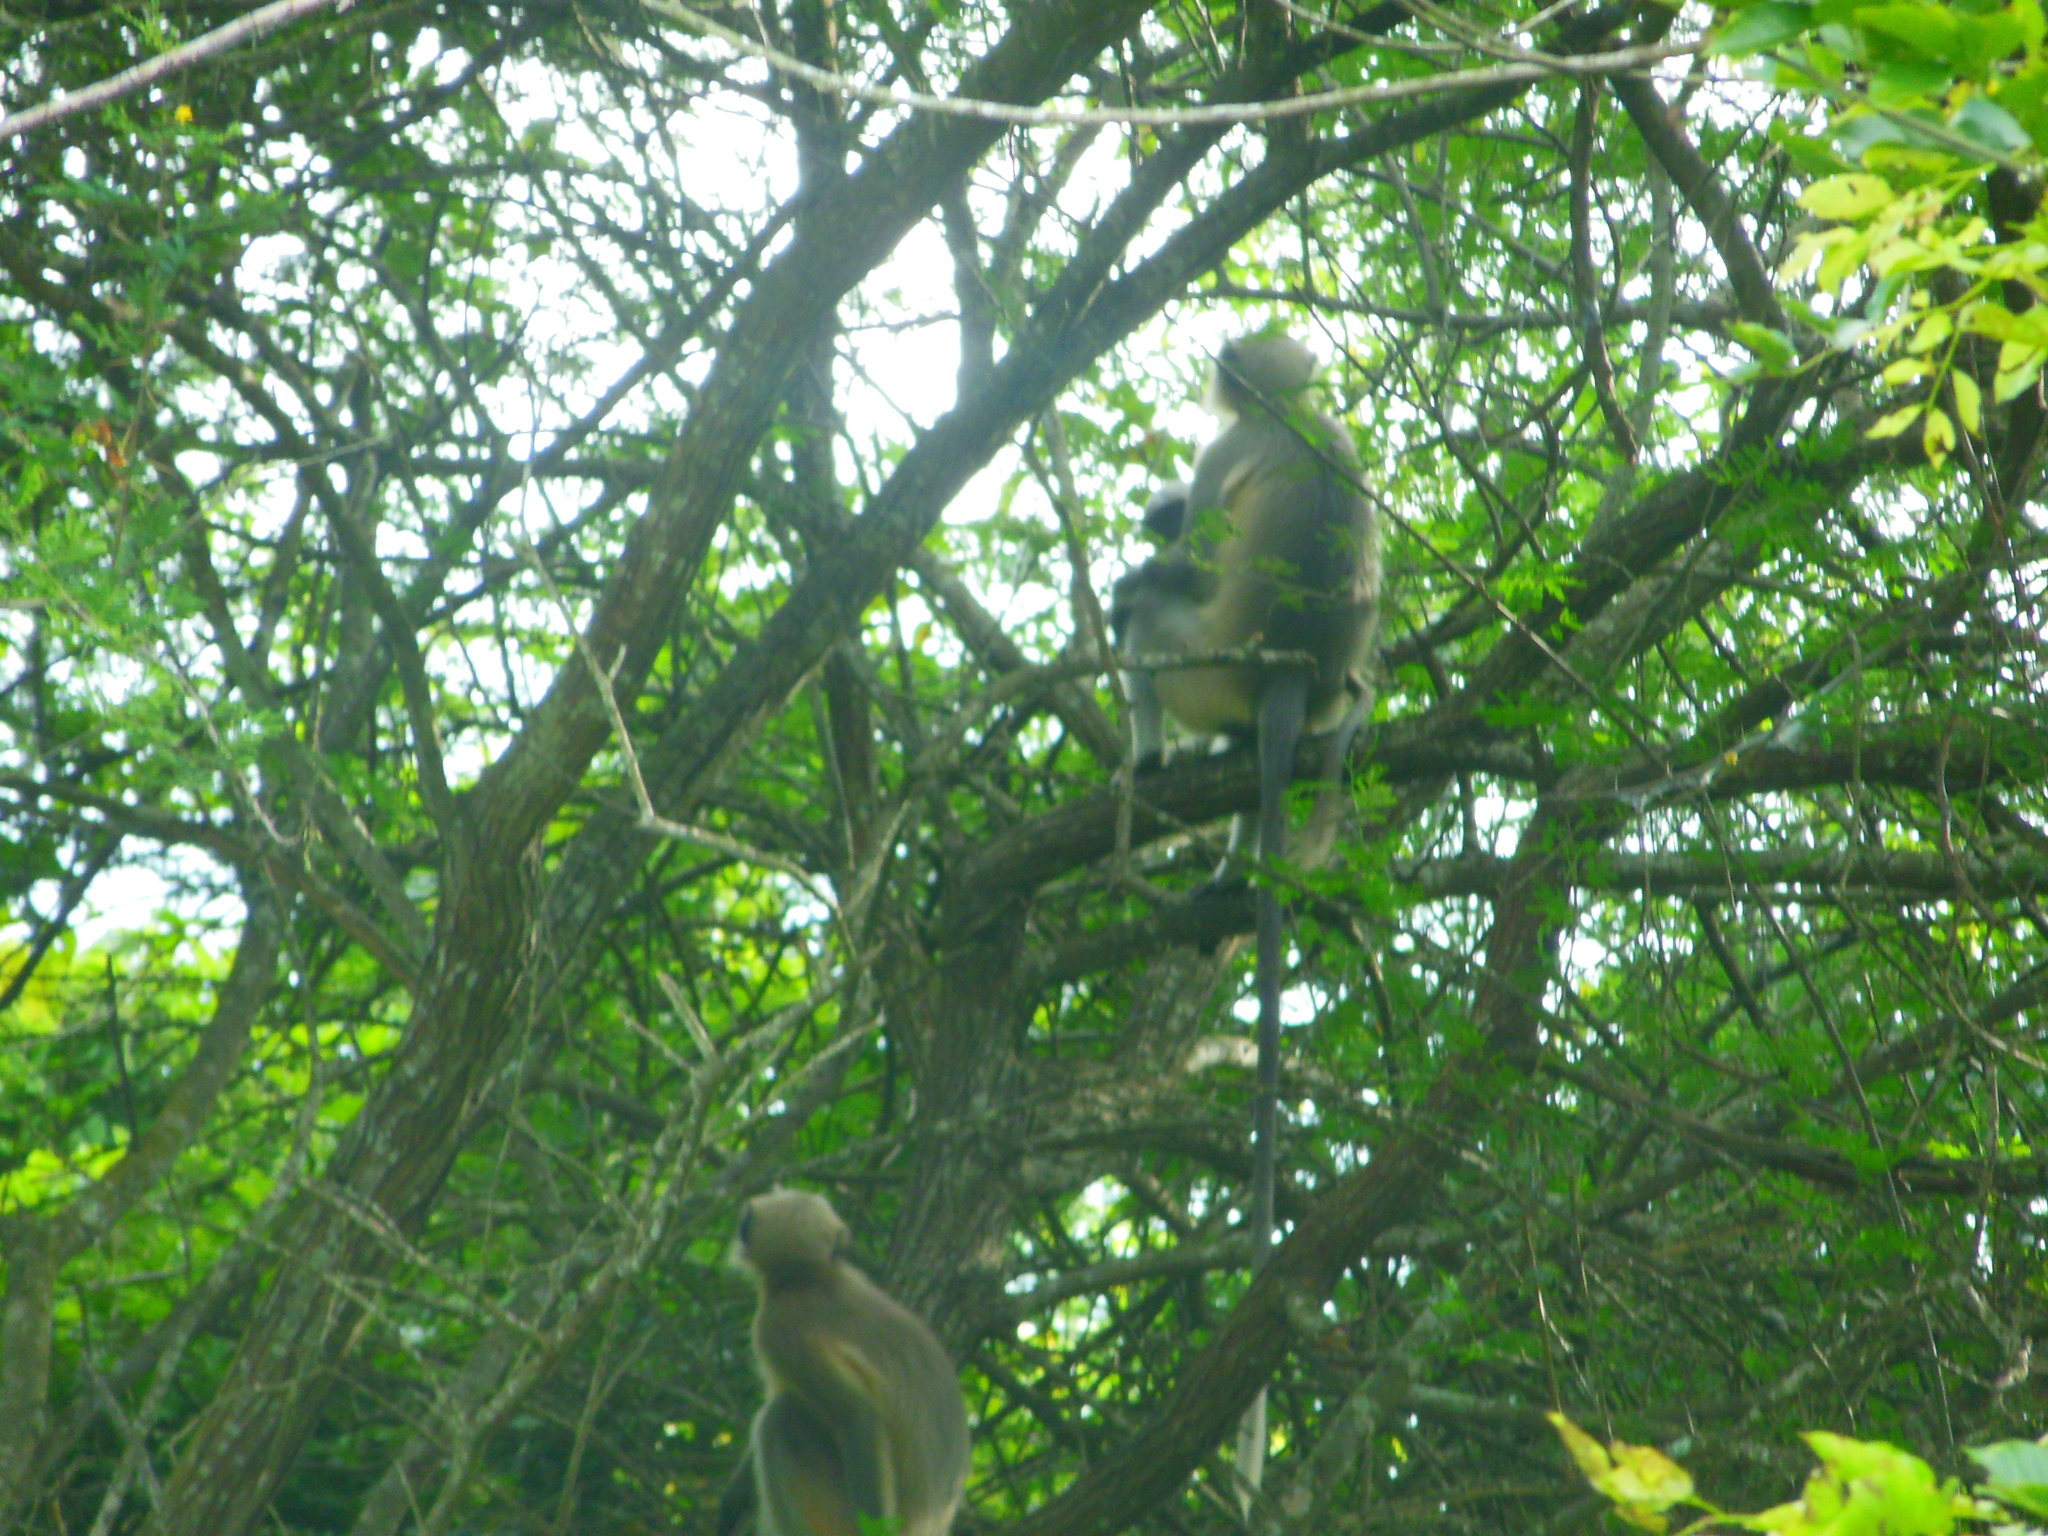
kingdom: Animalia
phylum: Chordata
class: Mammalia
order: Primates
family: Cercopithecidae
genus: Semnopithecus
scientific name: Semnopithecus hypoleucos
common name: Black-footed gray langur
